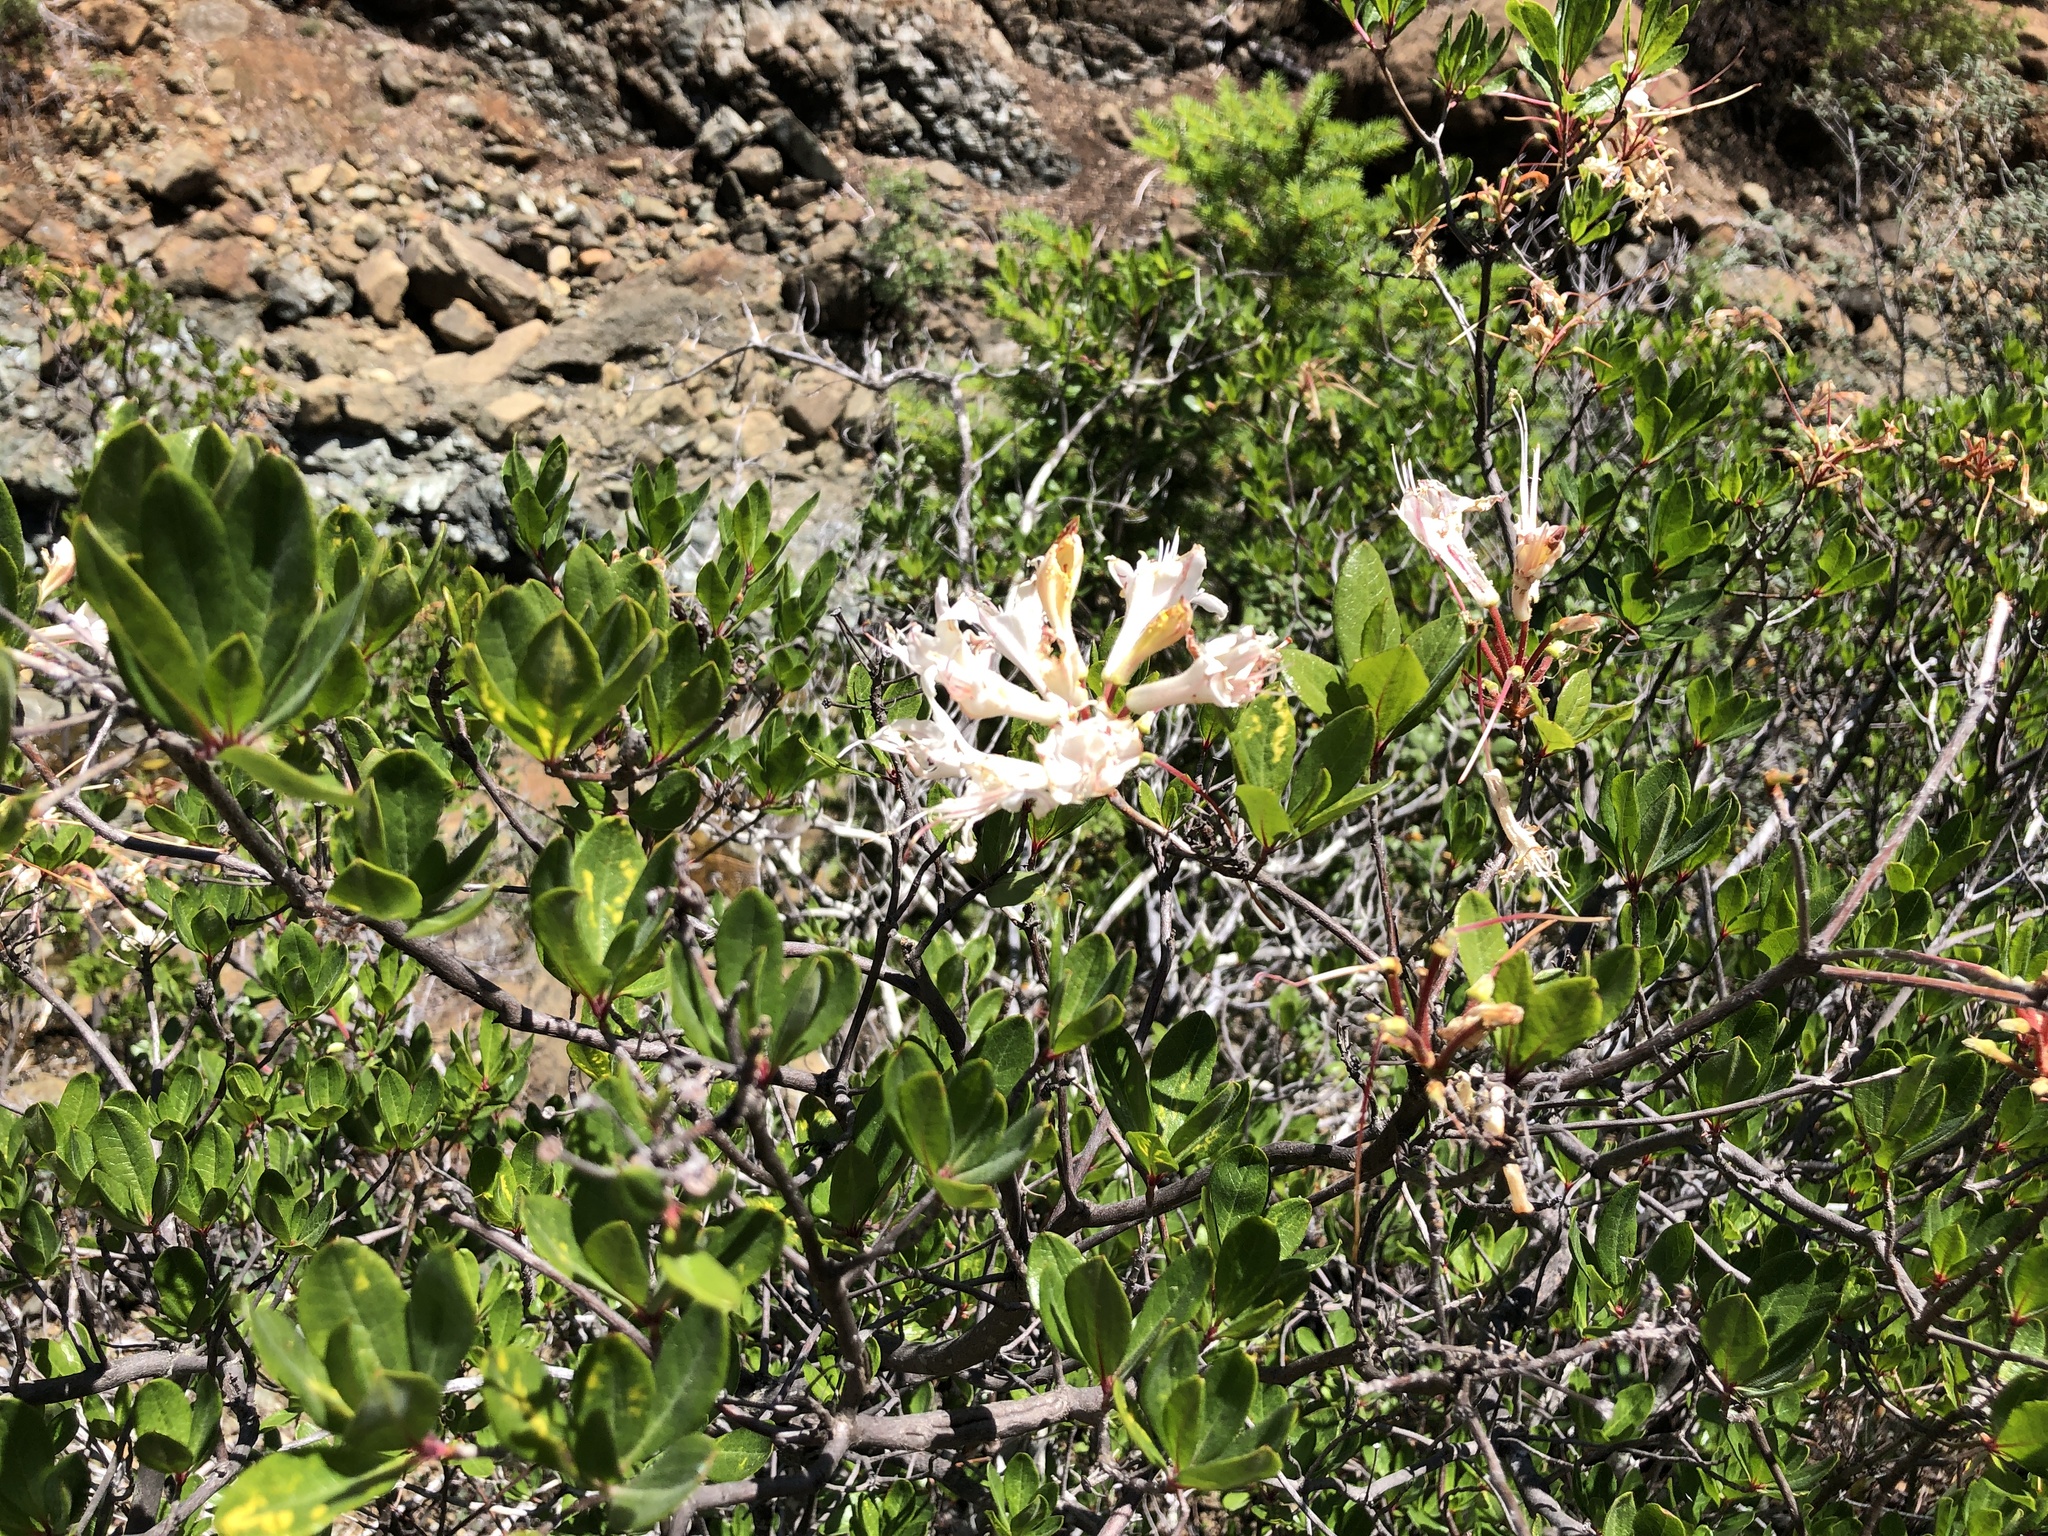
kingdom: Plantae
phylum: Tracheophyta
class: Magnoliopsida
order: Ericales
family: Ericaceae
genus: Rhododendron
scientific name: Rhododendron occidentale
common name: Western azalea
